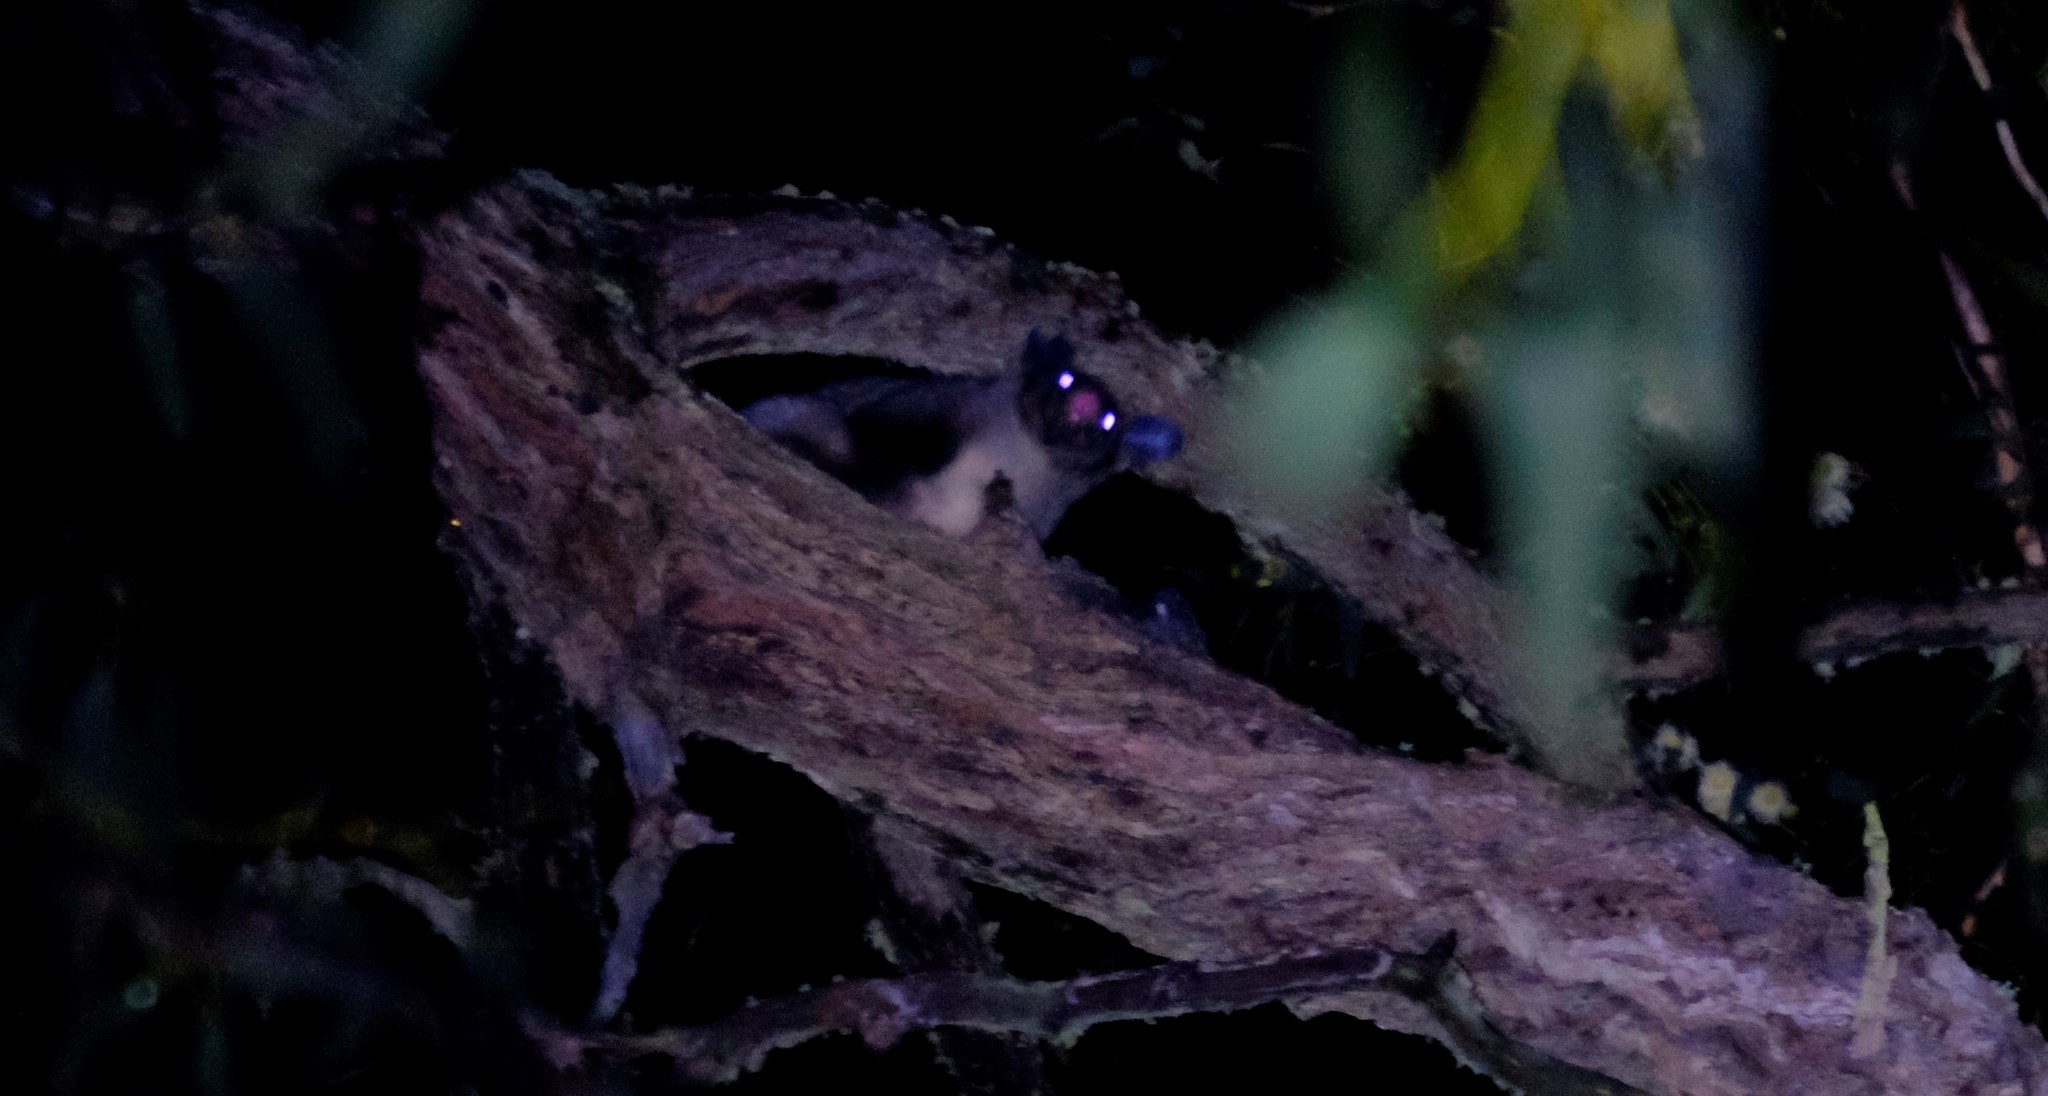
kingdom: Animalia
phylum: Chordata
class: Mammalia
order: Diprotodontia
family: Petauridae
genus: Petaurus
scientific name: Petaurus australis
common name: Yellow-bellied glider
